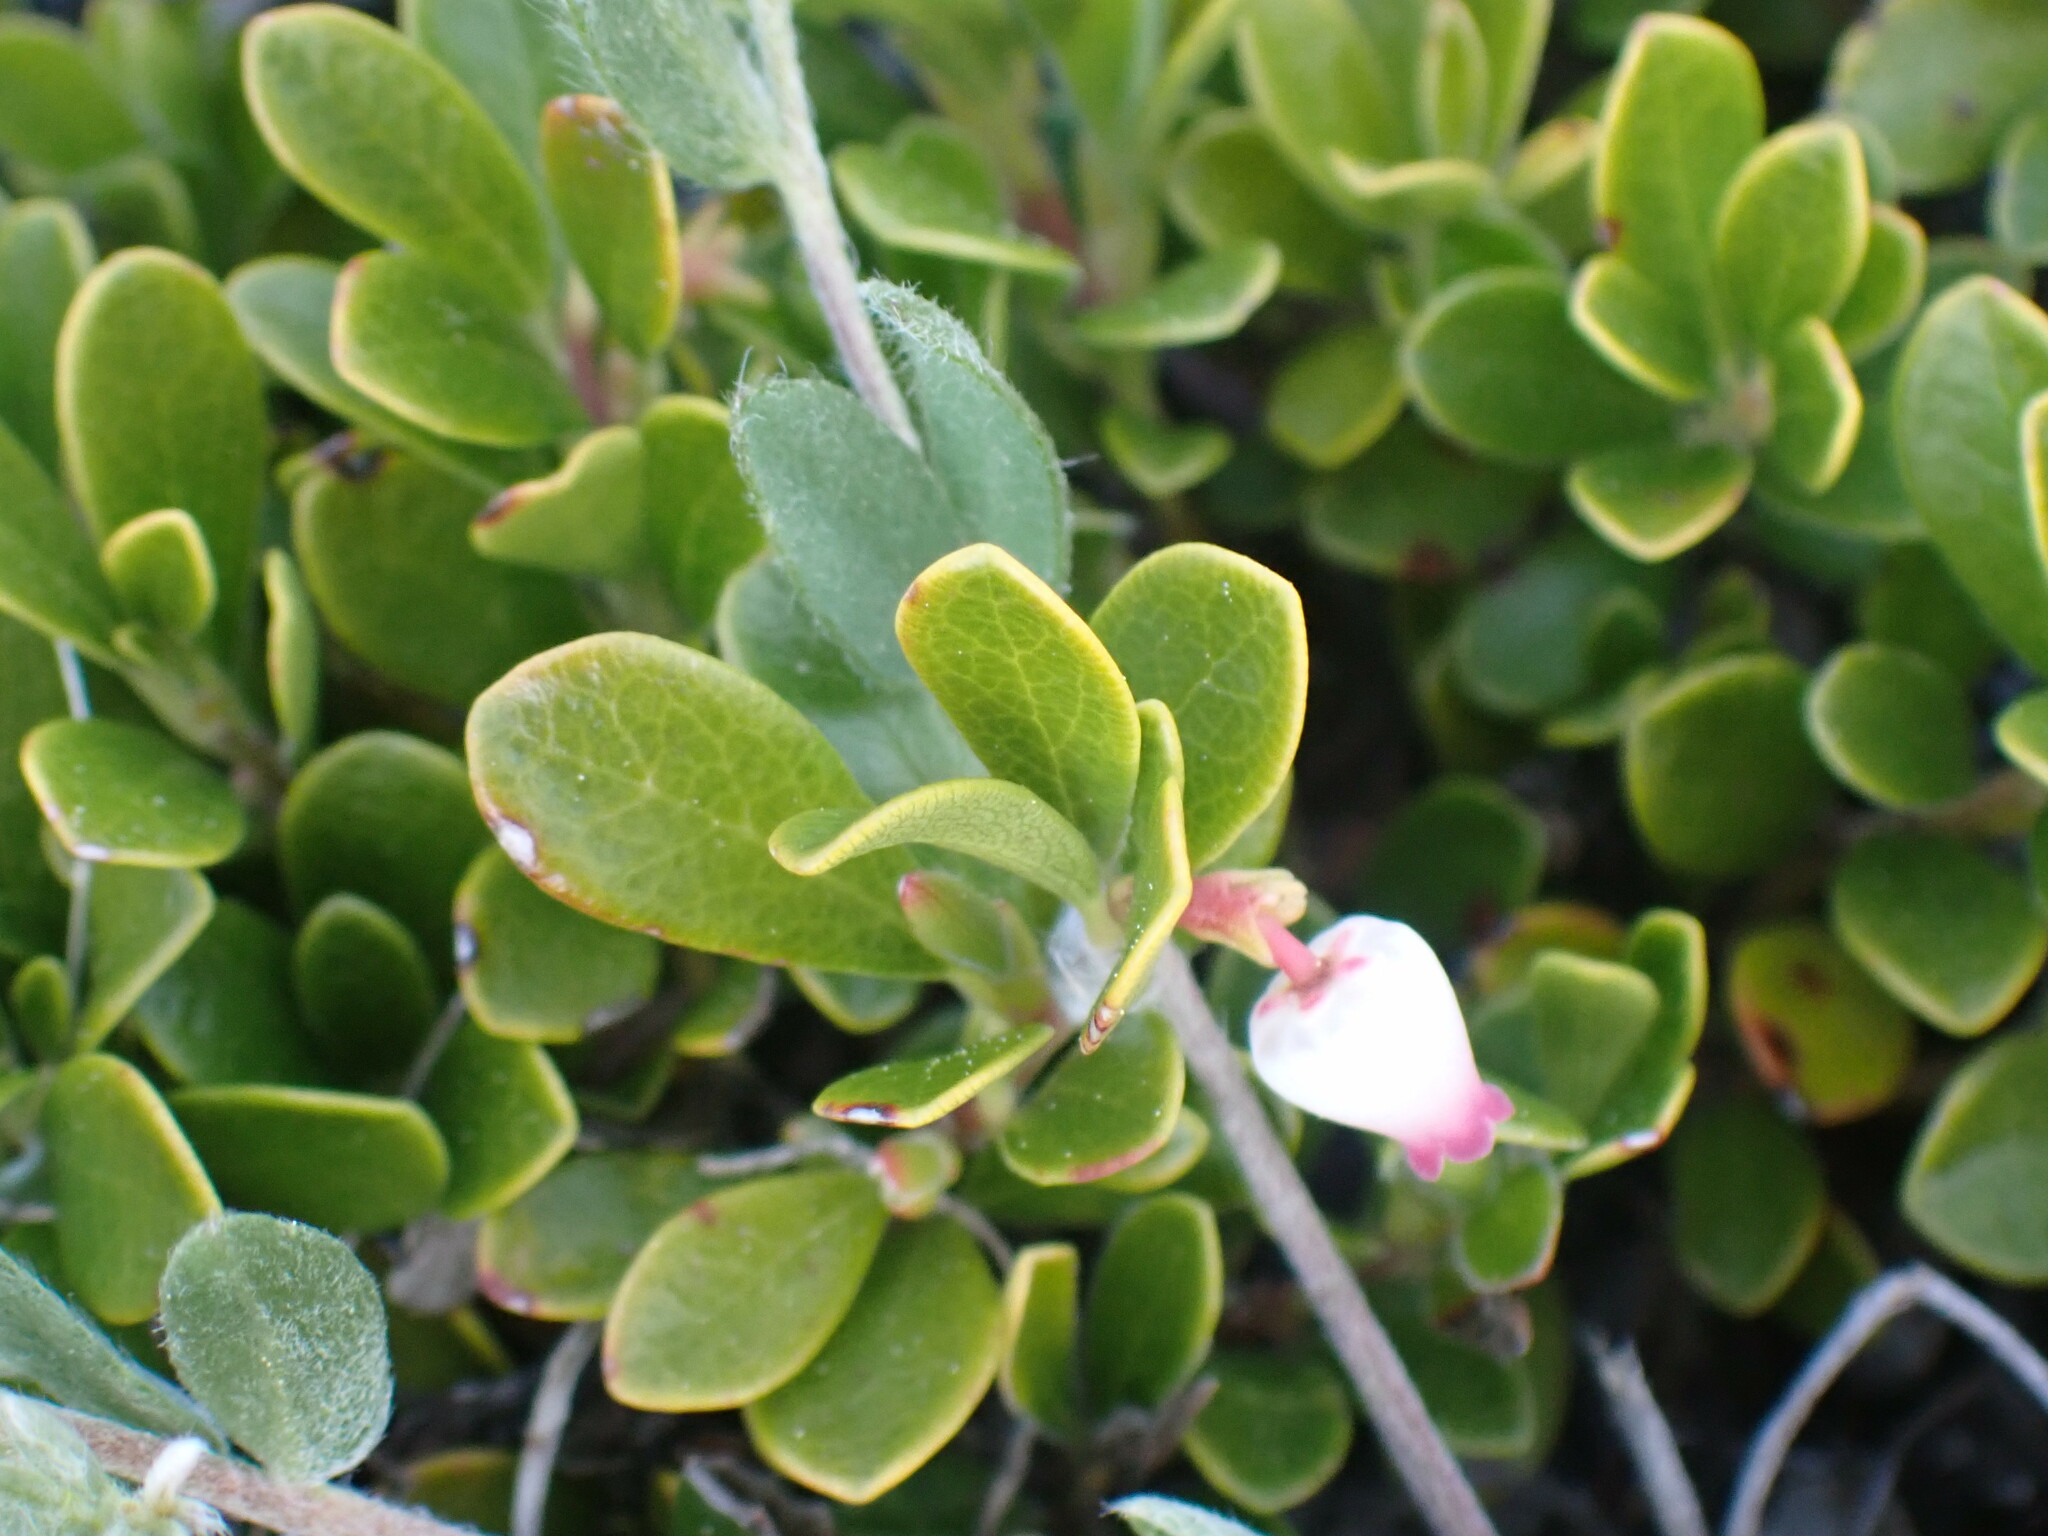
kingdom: Plantae
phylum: Tracheophyta
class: Magnoliopsida
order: Ericales
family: Ericaceae
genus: Arctostaphylos
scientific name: Arctostaphylos uva-ursi
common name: Bearberry
